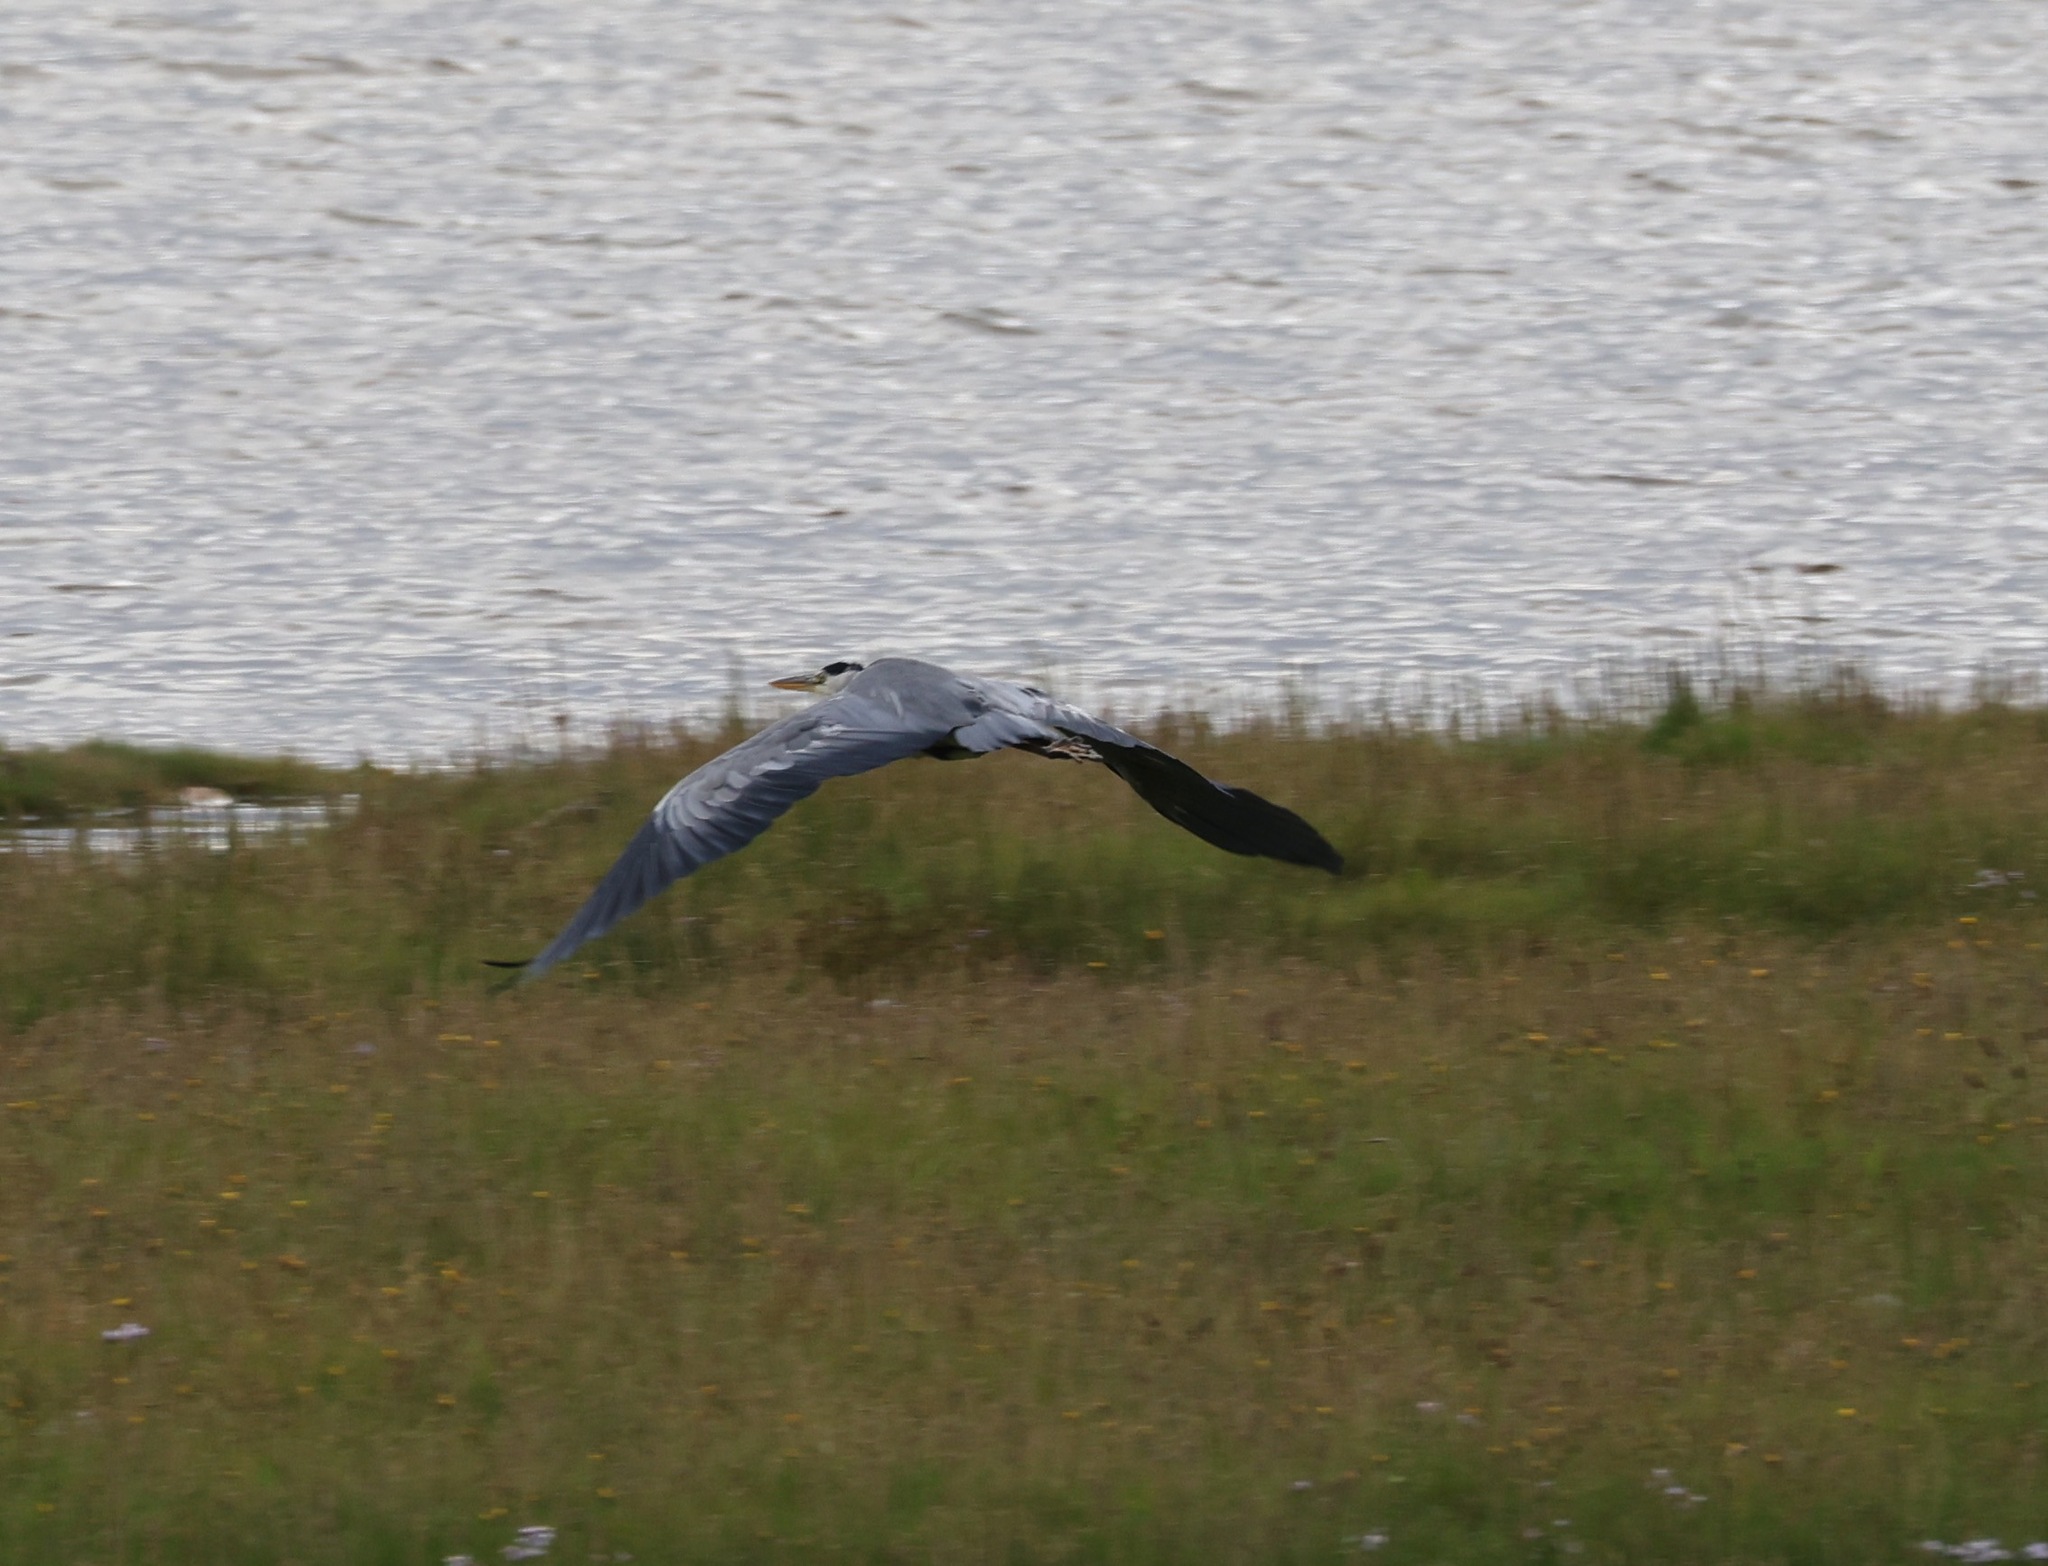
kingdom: Animalia
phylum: Chordata
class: Aves
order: Pelecaniformes
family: Ardeidae
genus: Ardea
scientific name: Ardea cinerea
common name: Grey heron
